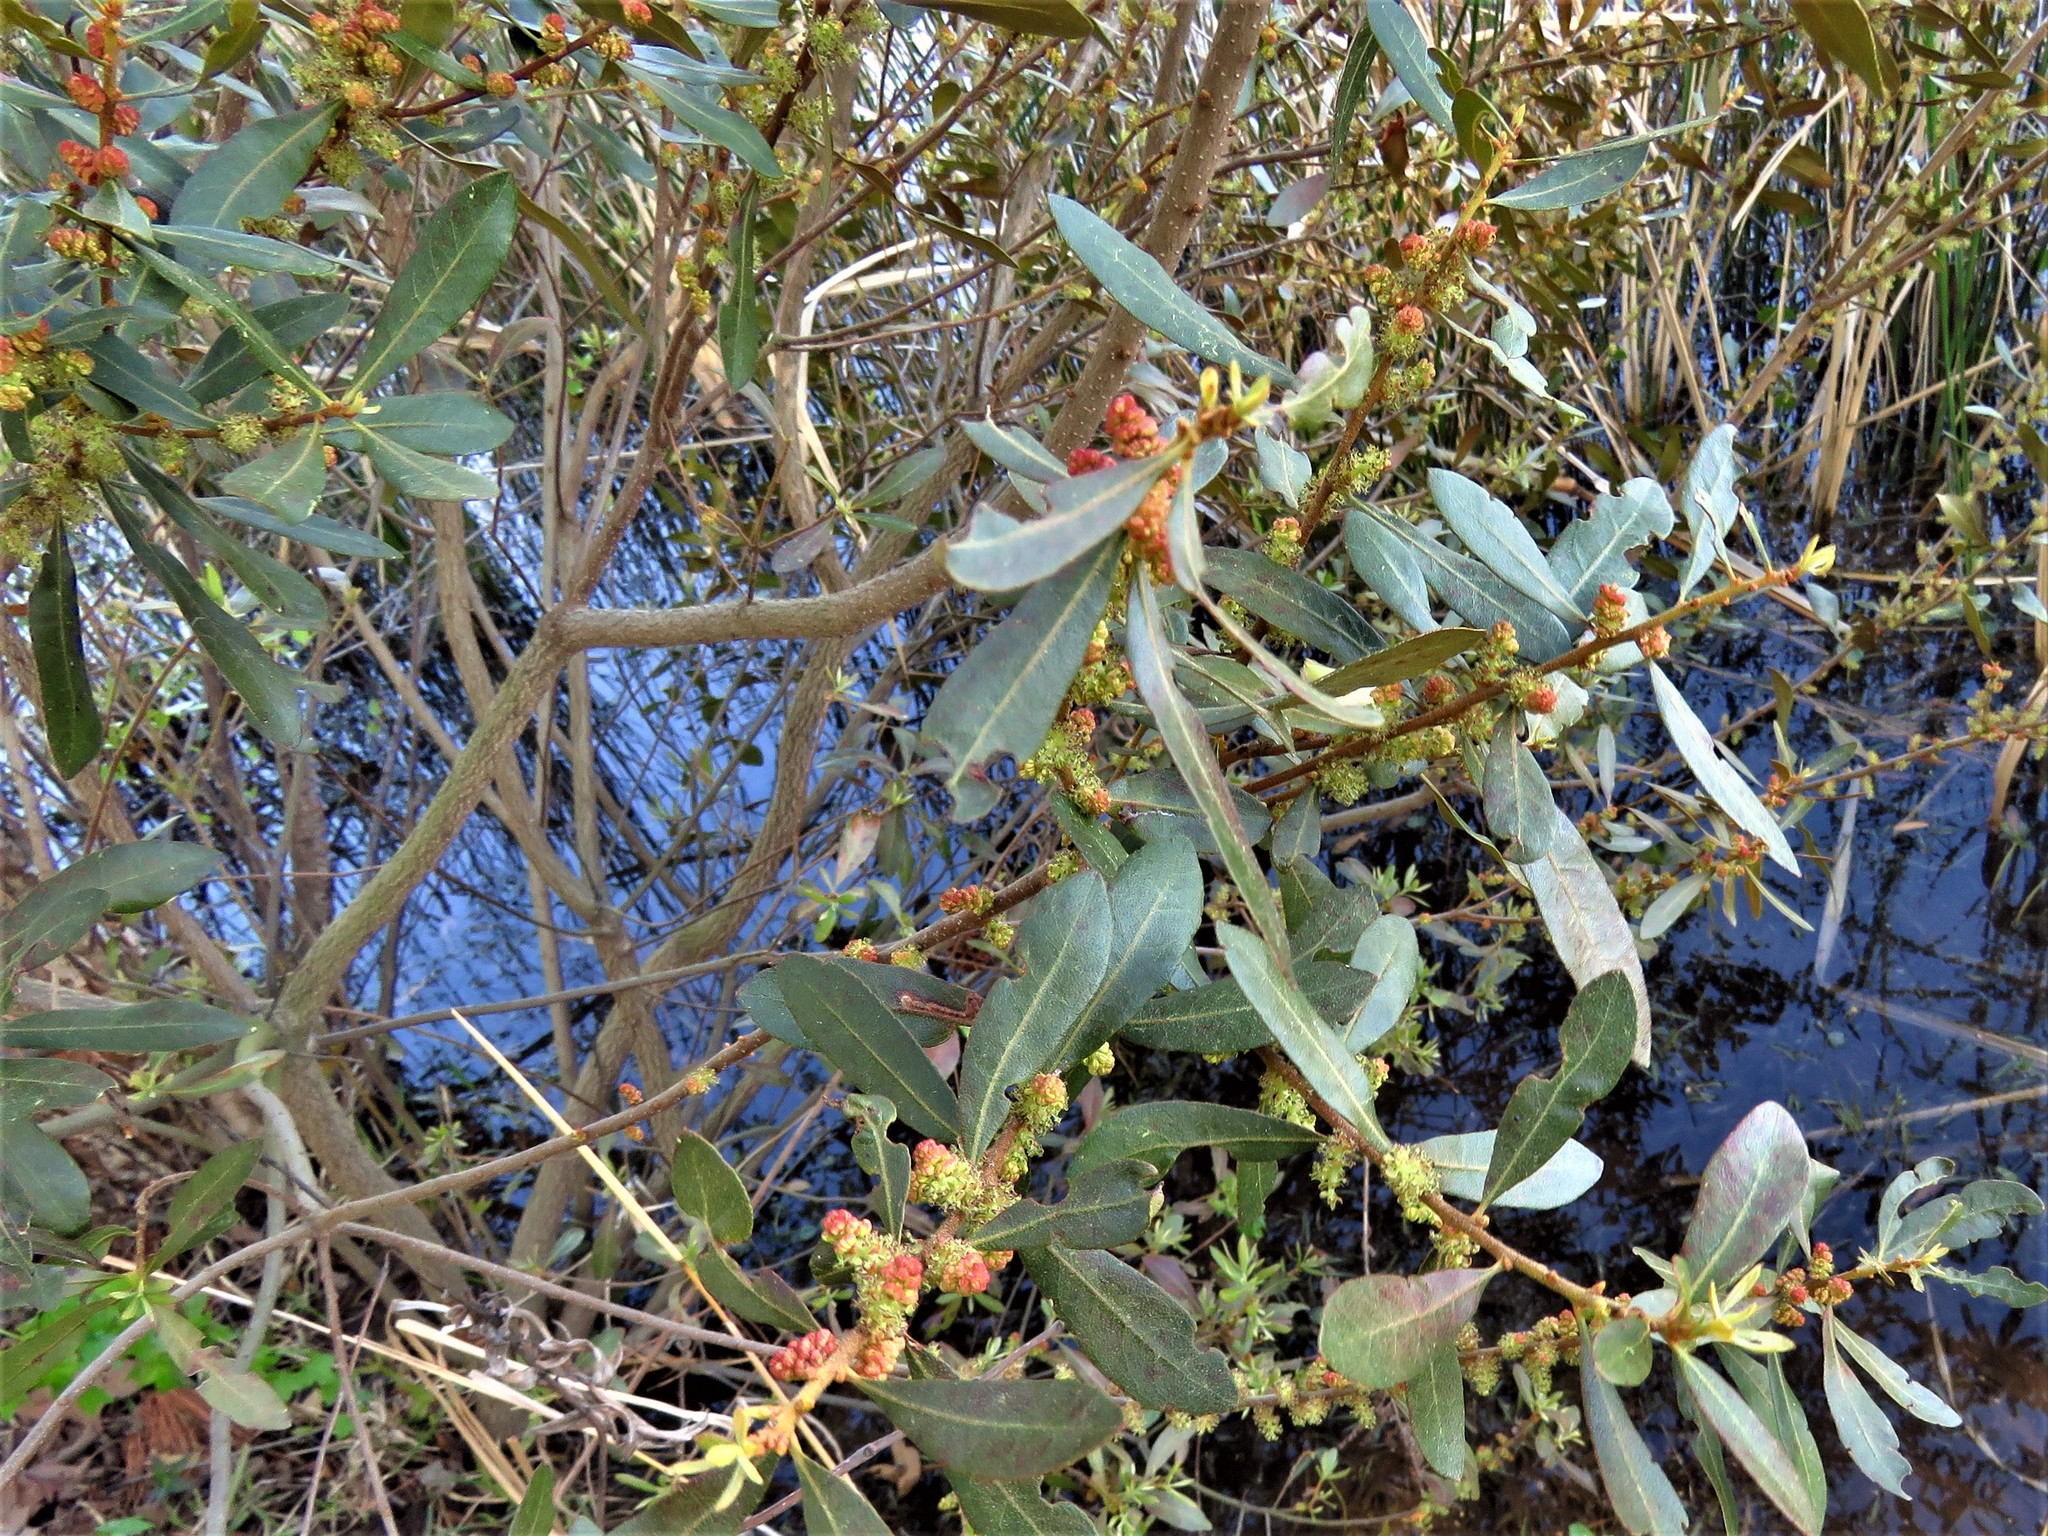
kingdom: Plantae
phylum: Tracheophyta
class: Magnoliopsida
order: Fagales
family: Myricaceae
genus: Morella
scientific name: Morella cerifera
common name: Wax myrtle
